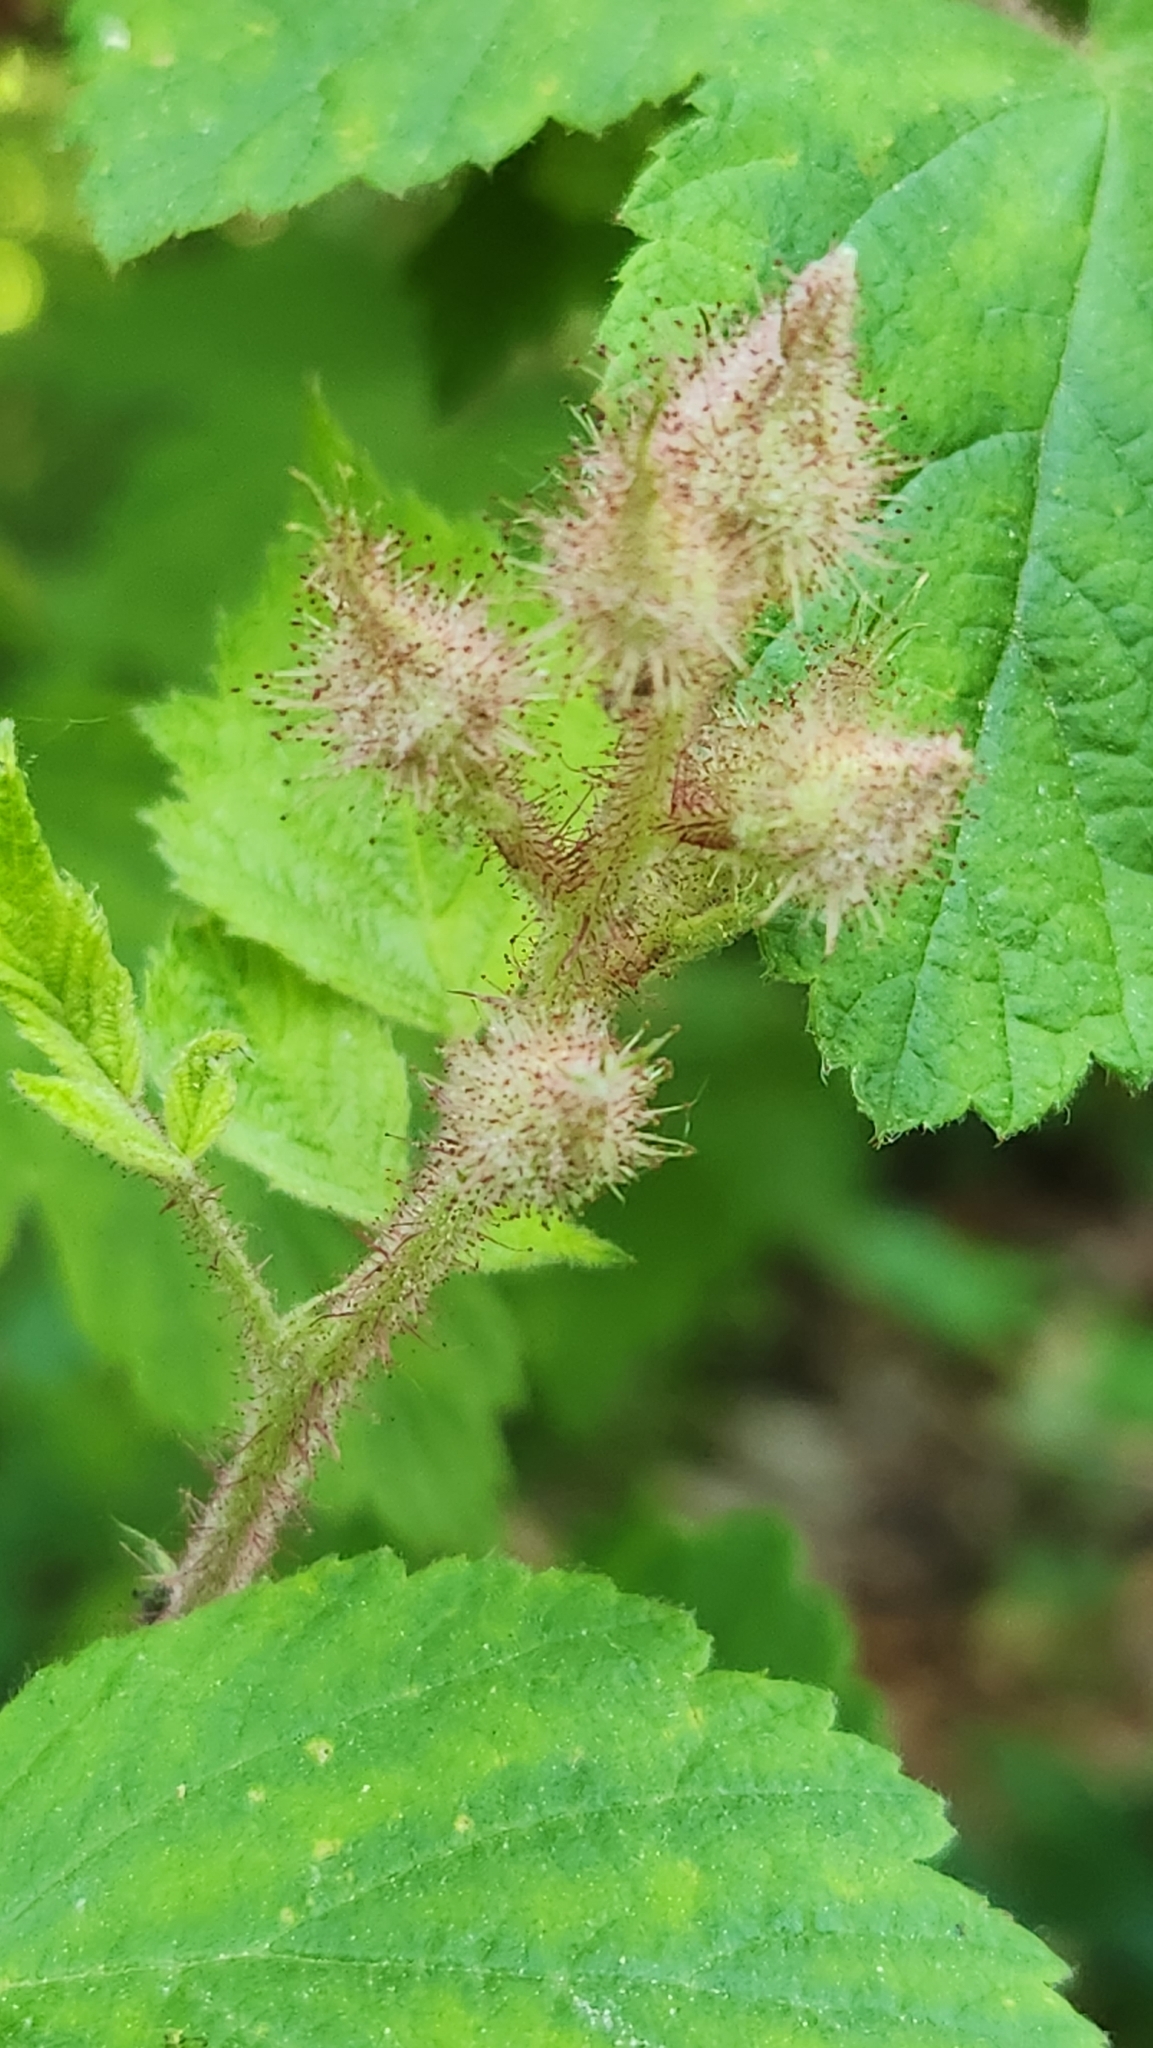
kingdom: Plantae
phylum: Tracheophyta
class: Magnoliopsida
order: Rosales
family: Rosaceae
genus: Rubus
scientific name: Rubus phoenicolasius
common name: Japanese wineberry
